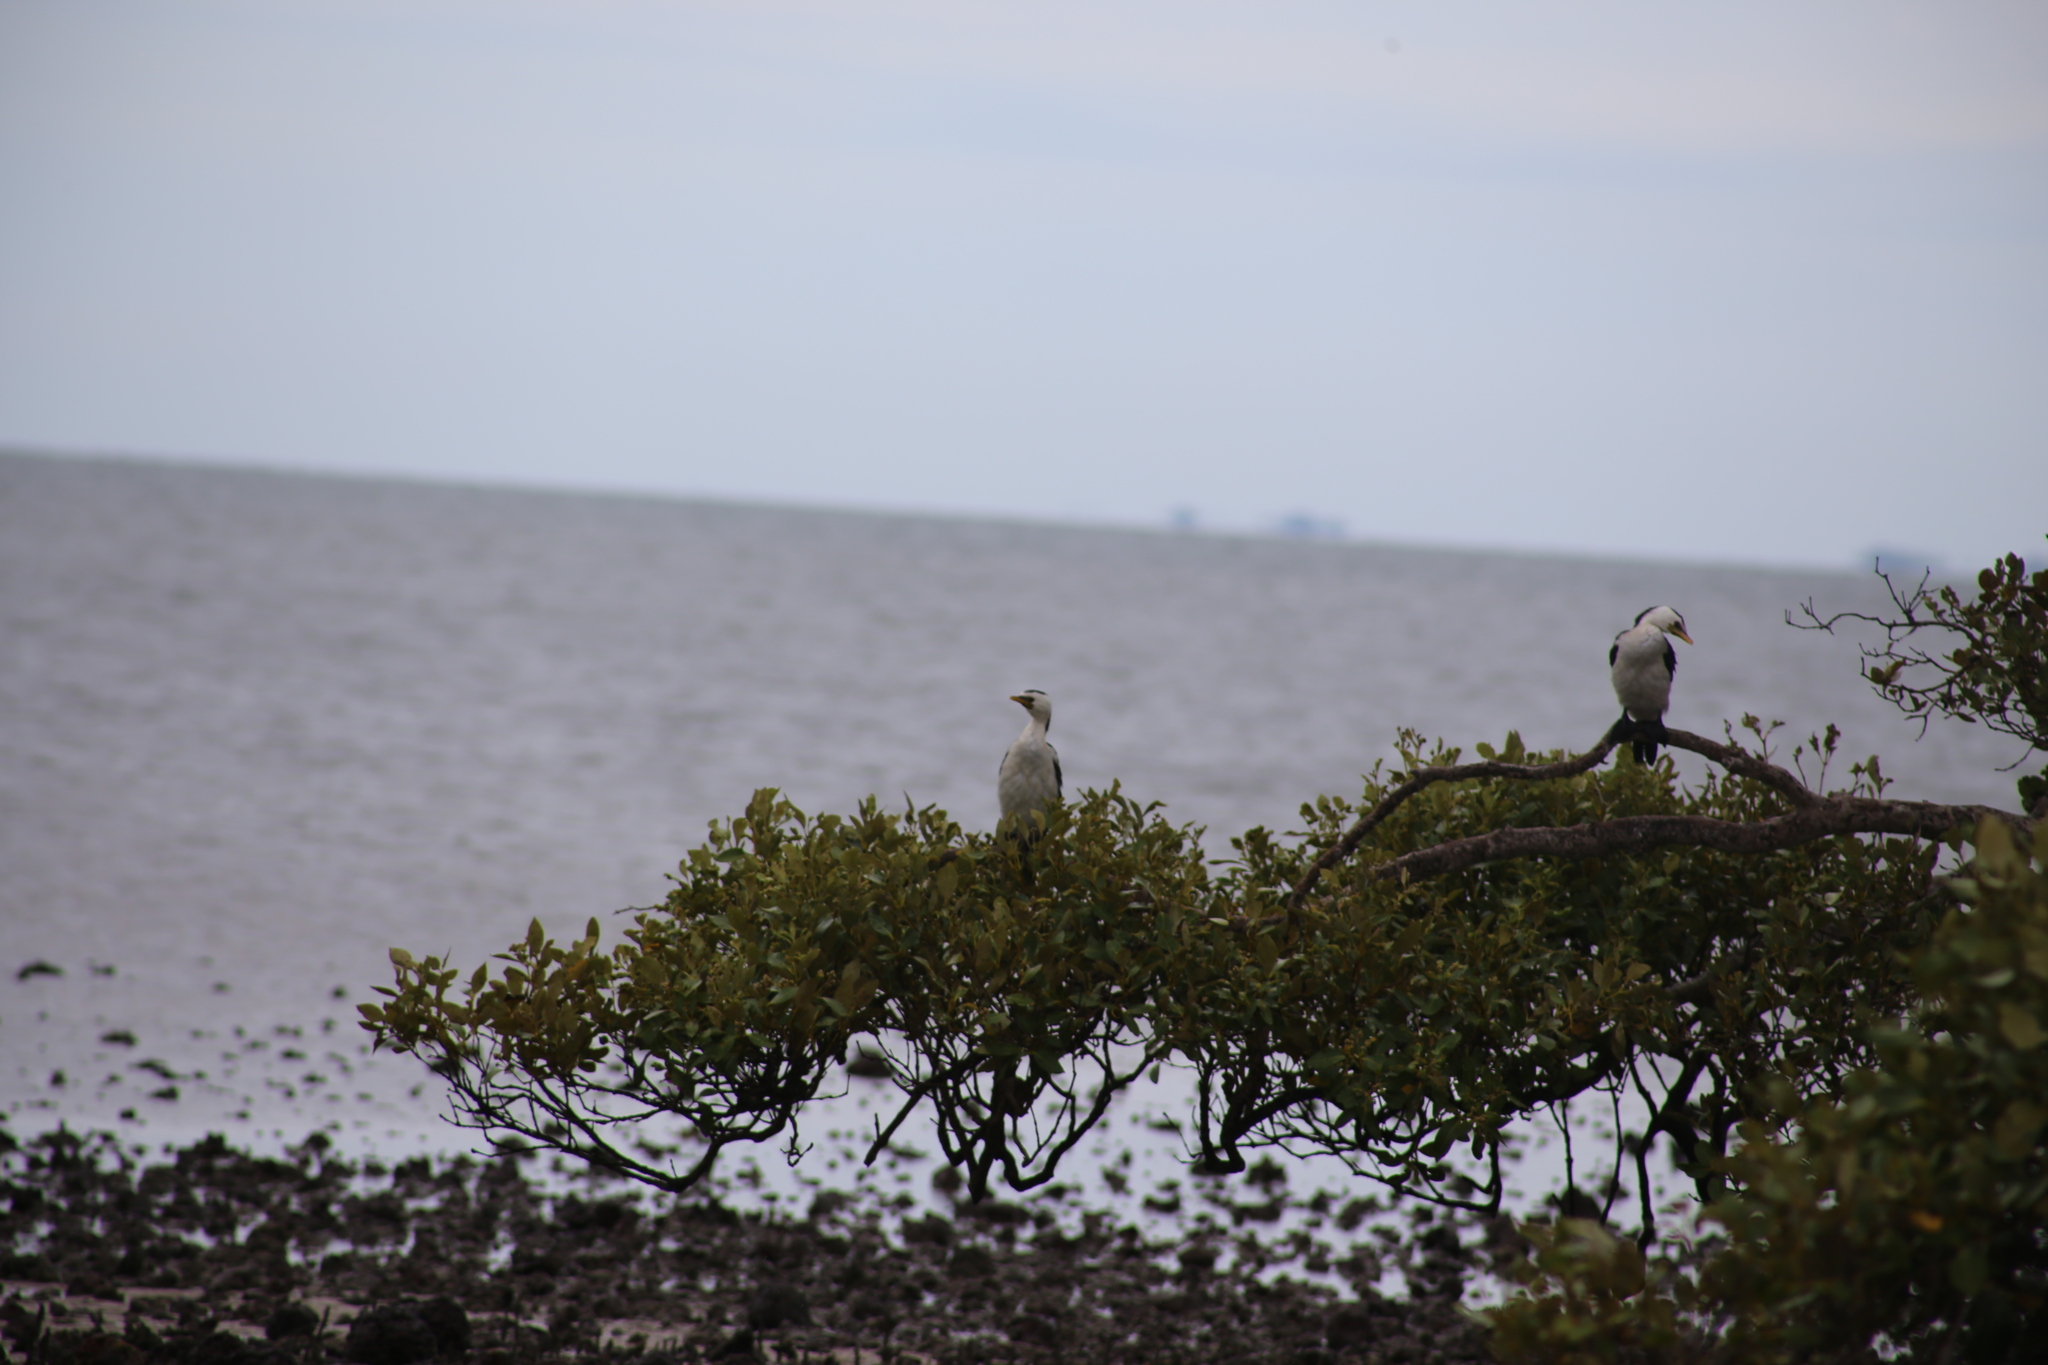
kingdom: Animalia
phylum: Chordata
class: Aves
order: Suliformes
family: Phalacrocoracidae
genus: Microcarbo
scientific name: Microcarbo melanoleucos
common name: Little pied cormorant
